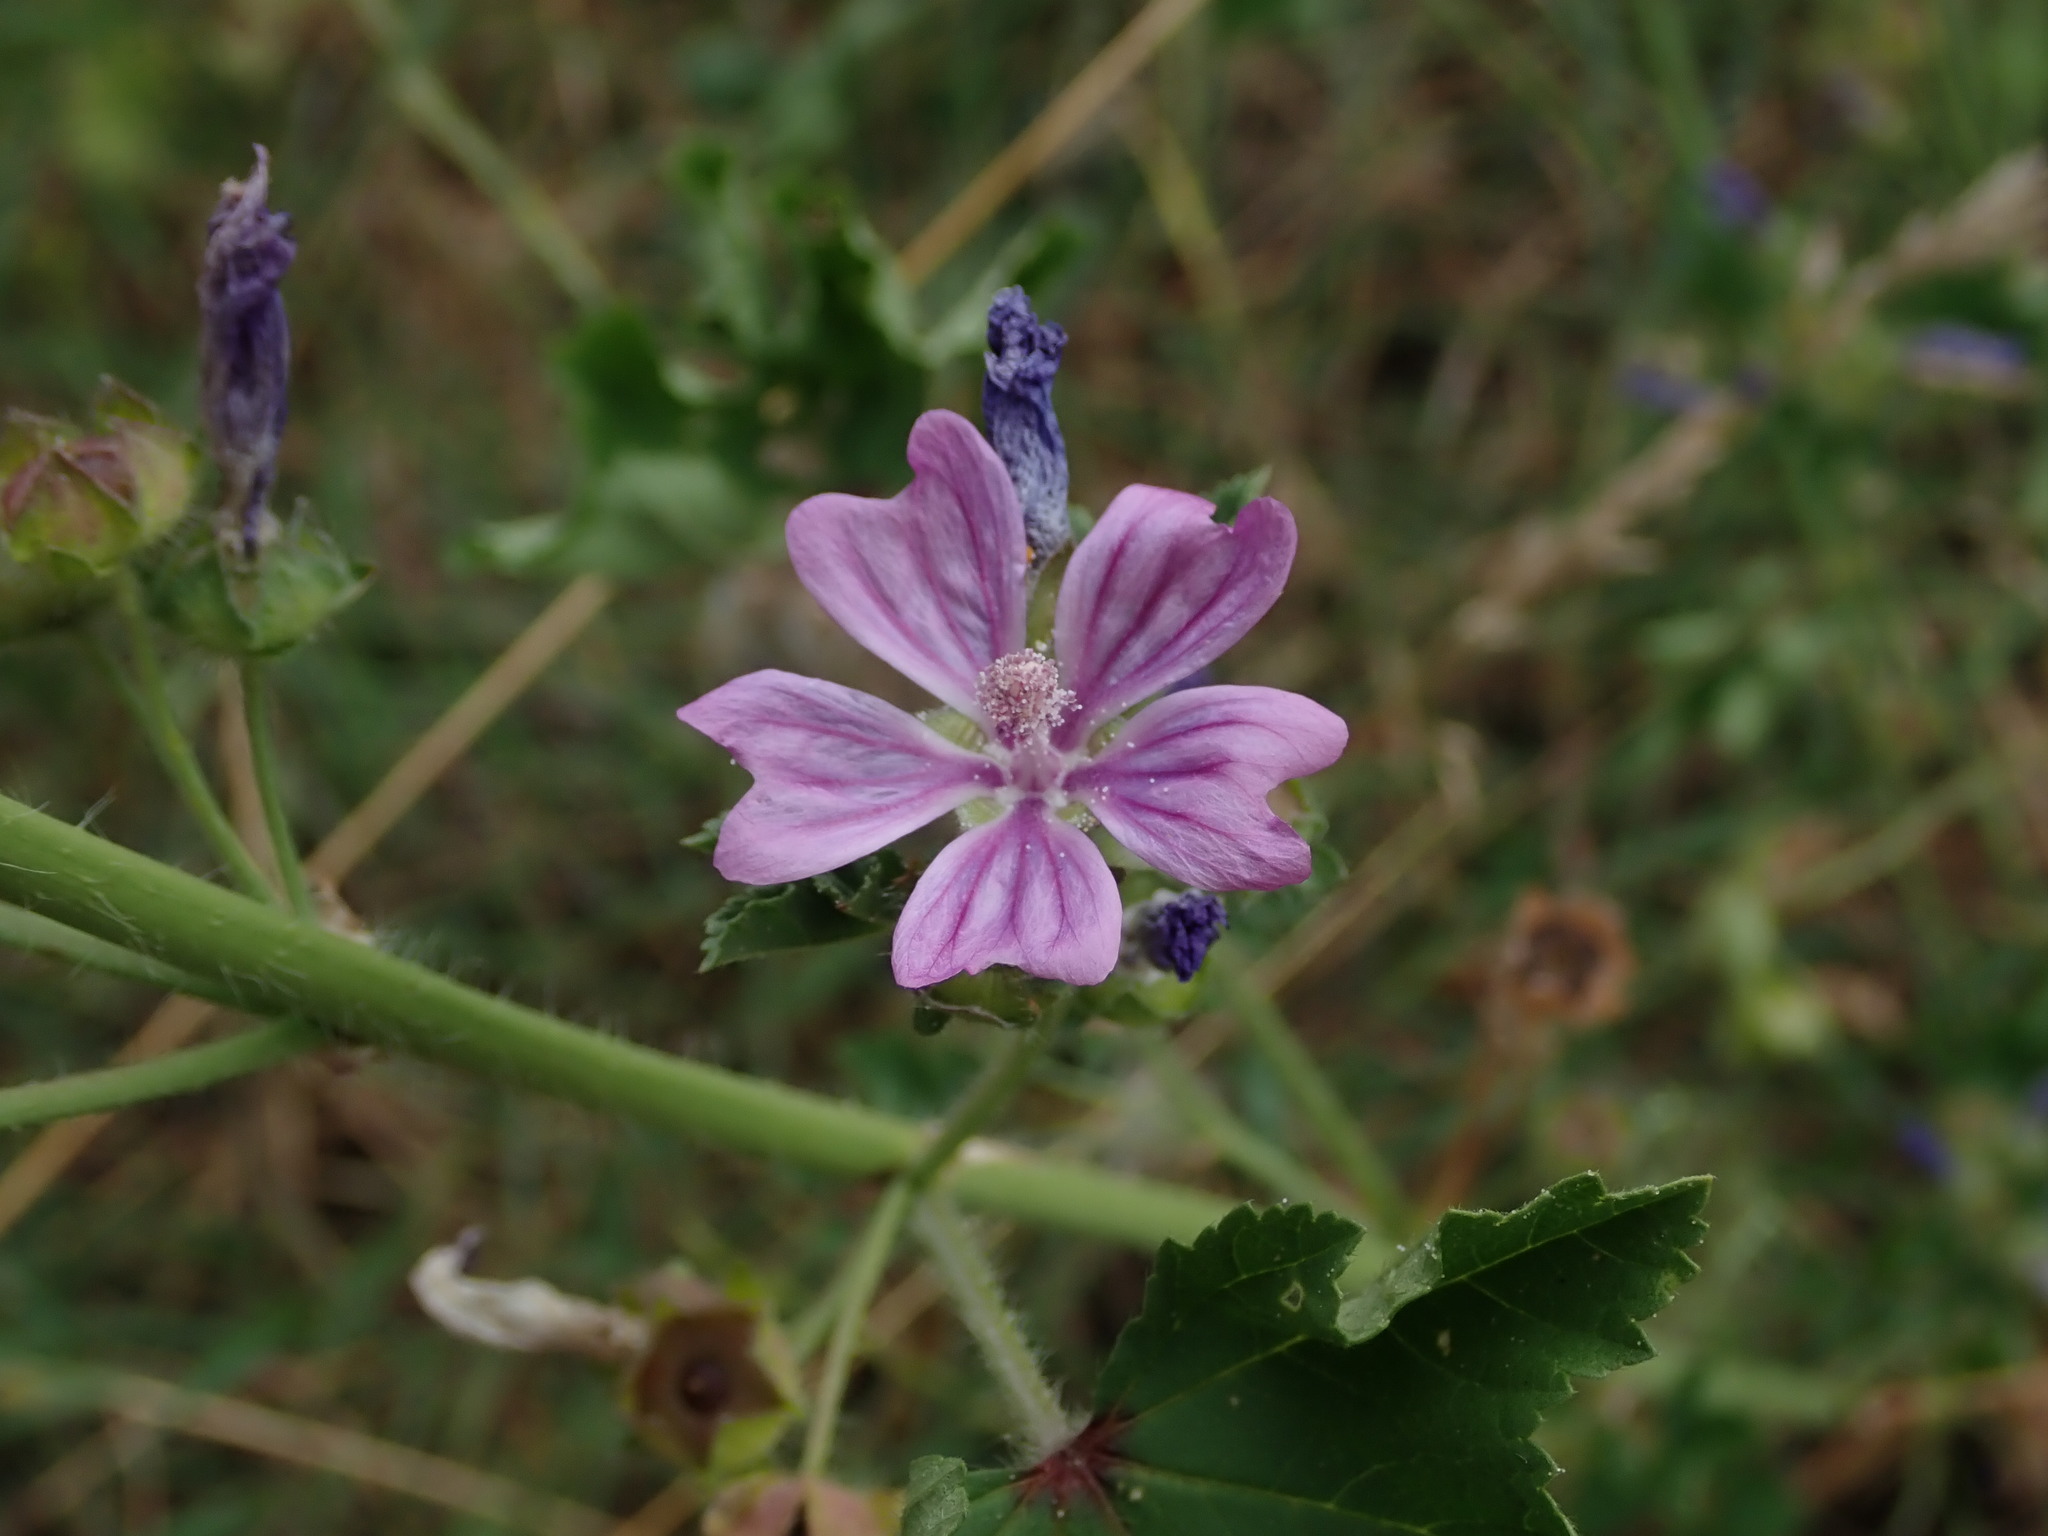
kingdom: Plantae
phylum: Tracheophyta
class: Magnoliopsida
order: Malvales
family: Malvaceae
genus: Malva
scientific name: Malva sylvestris
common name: Common mallow
